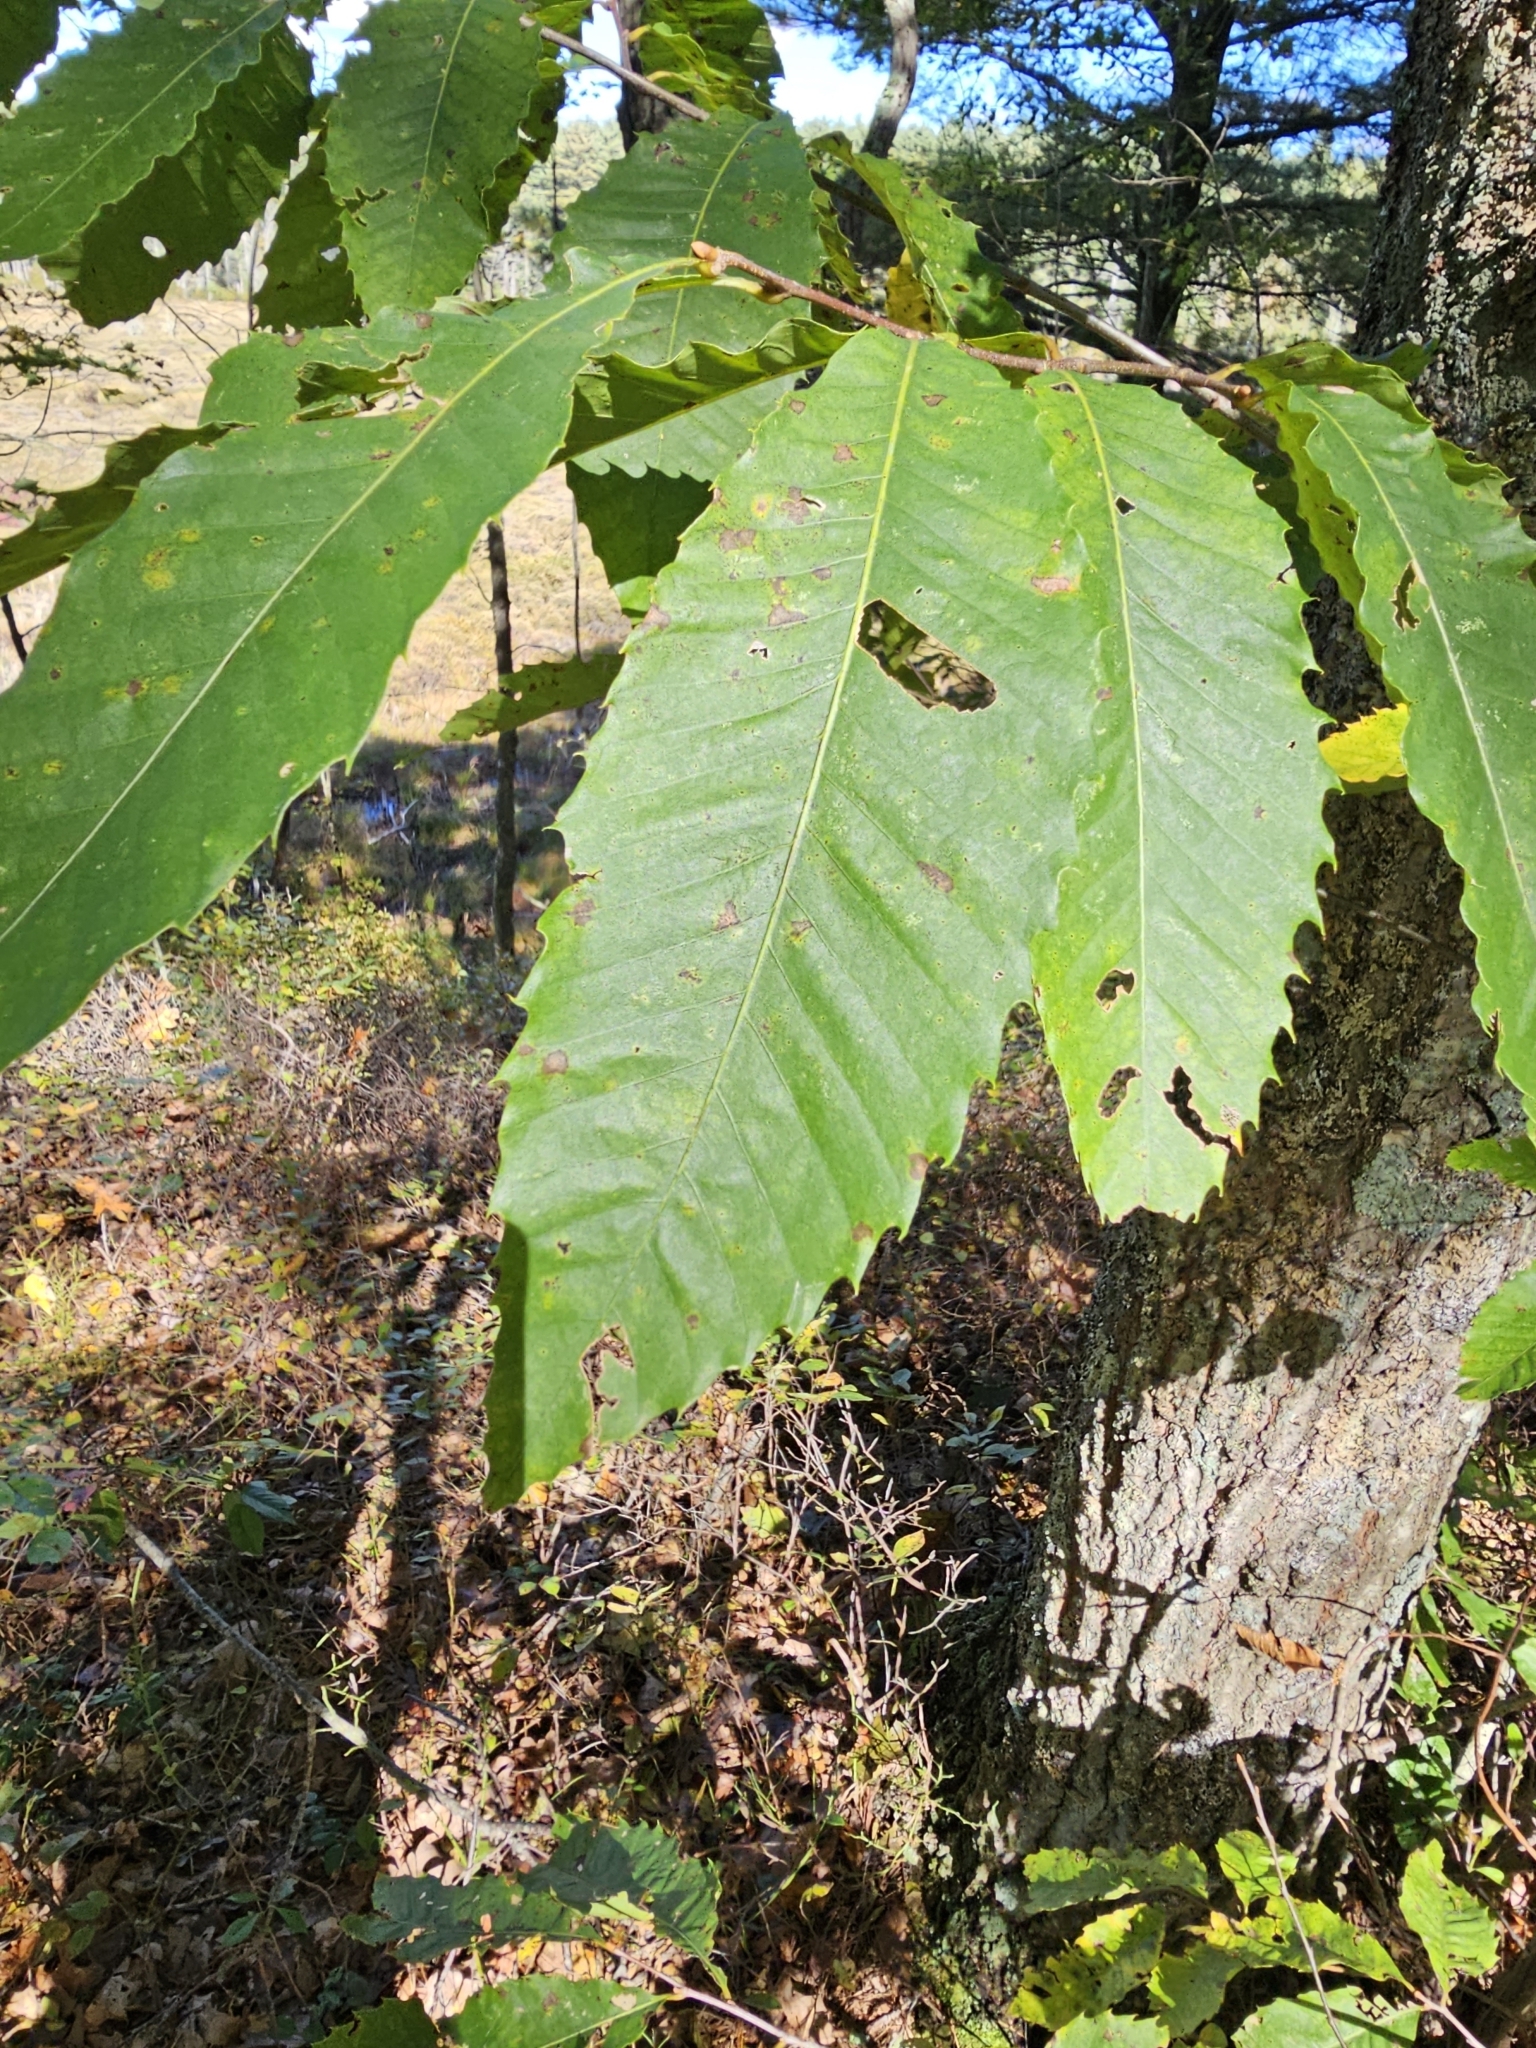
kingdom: Plantae
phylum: Tracheophyta
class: Magnoliopsida
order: Fagales
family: Fagaceae
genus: Castanea
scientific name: Castanea dentata
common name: American chestnut
